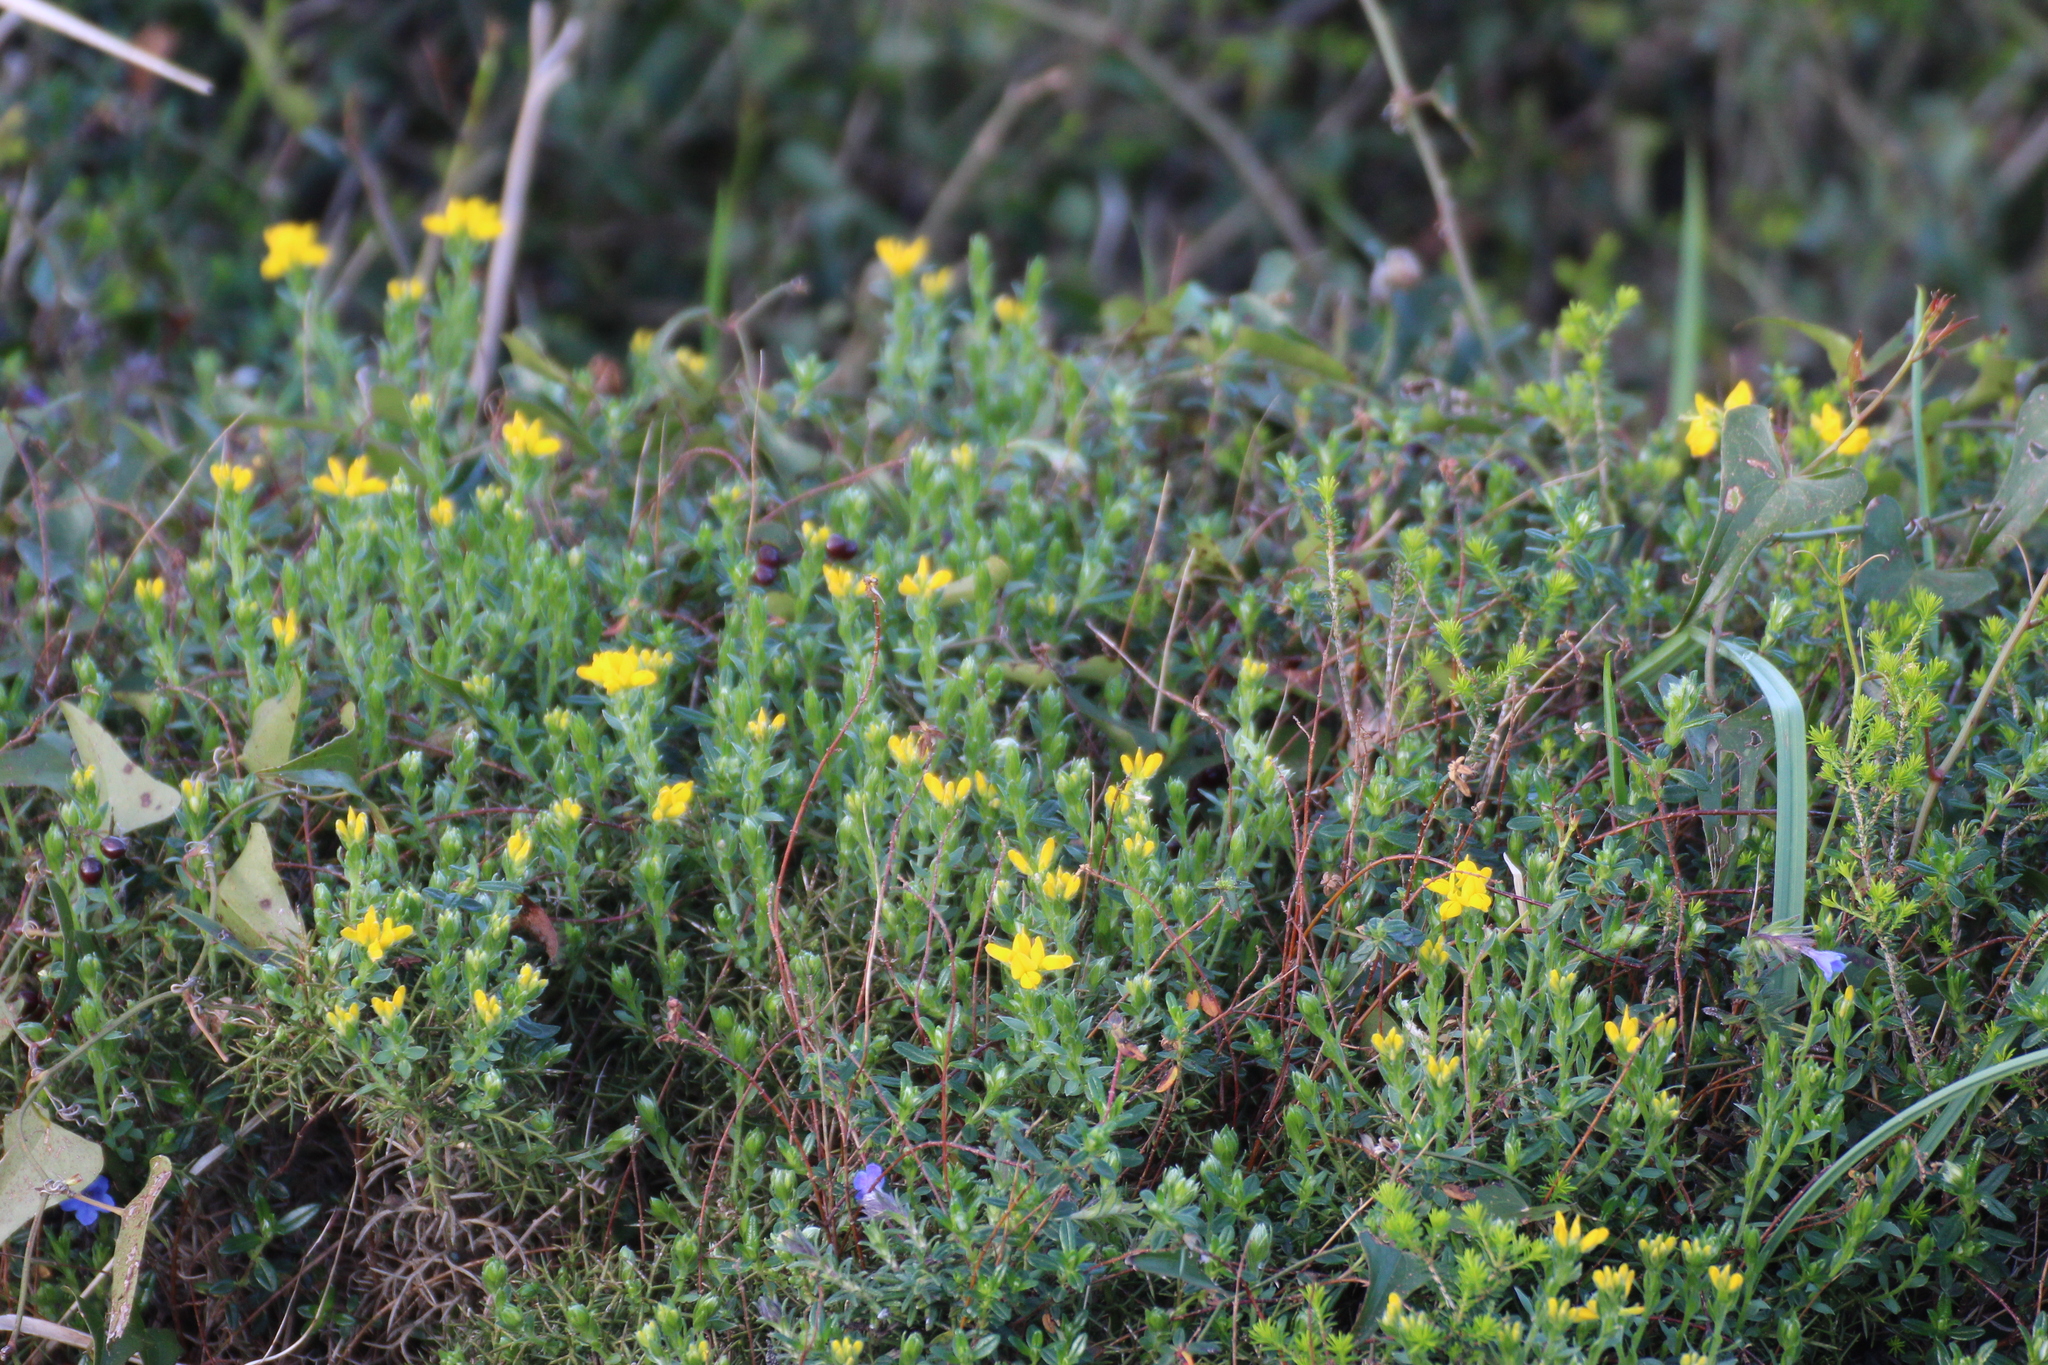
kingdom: Plantae
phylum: Tracheophyta
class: Magnoliopsida
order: Fabales
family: Fabaceae
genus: Genista
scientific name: Genista hispanica
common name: Spanish gorse
